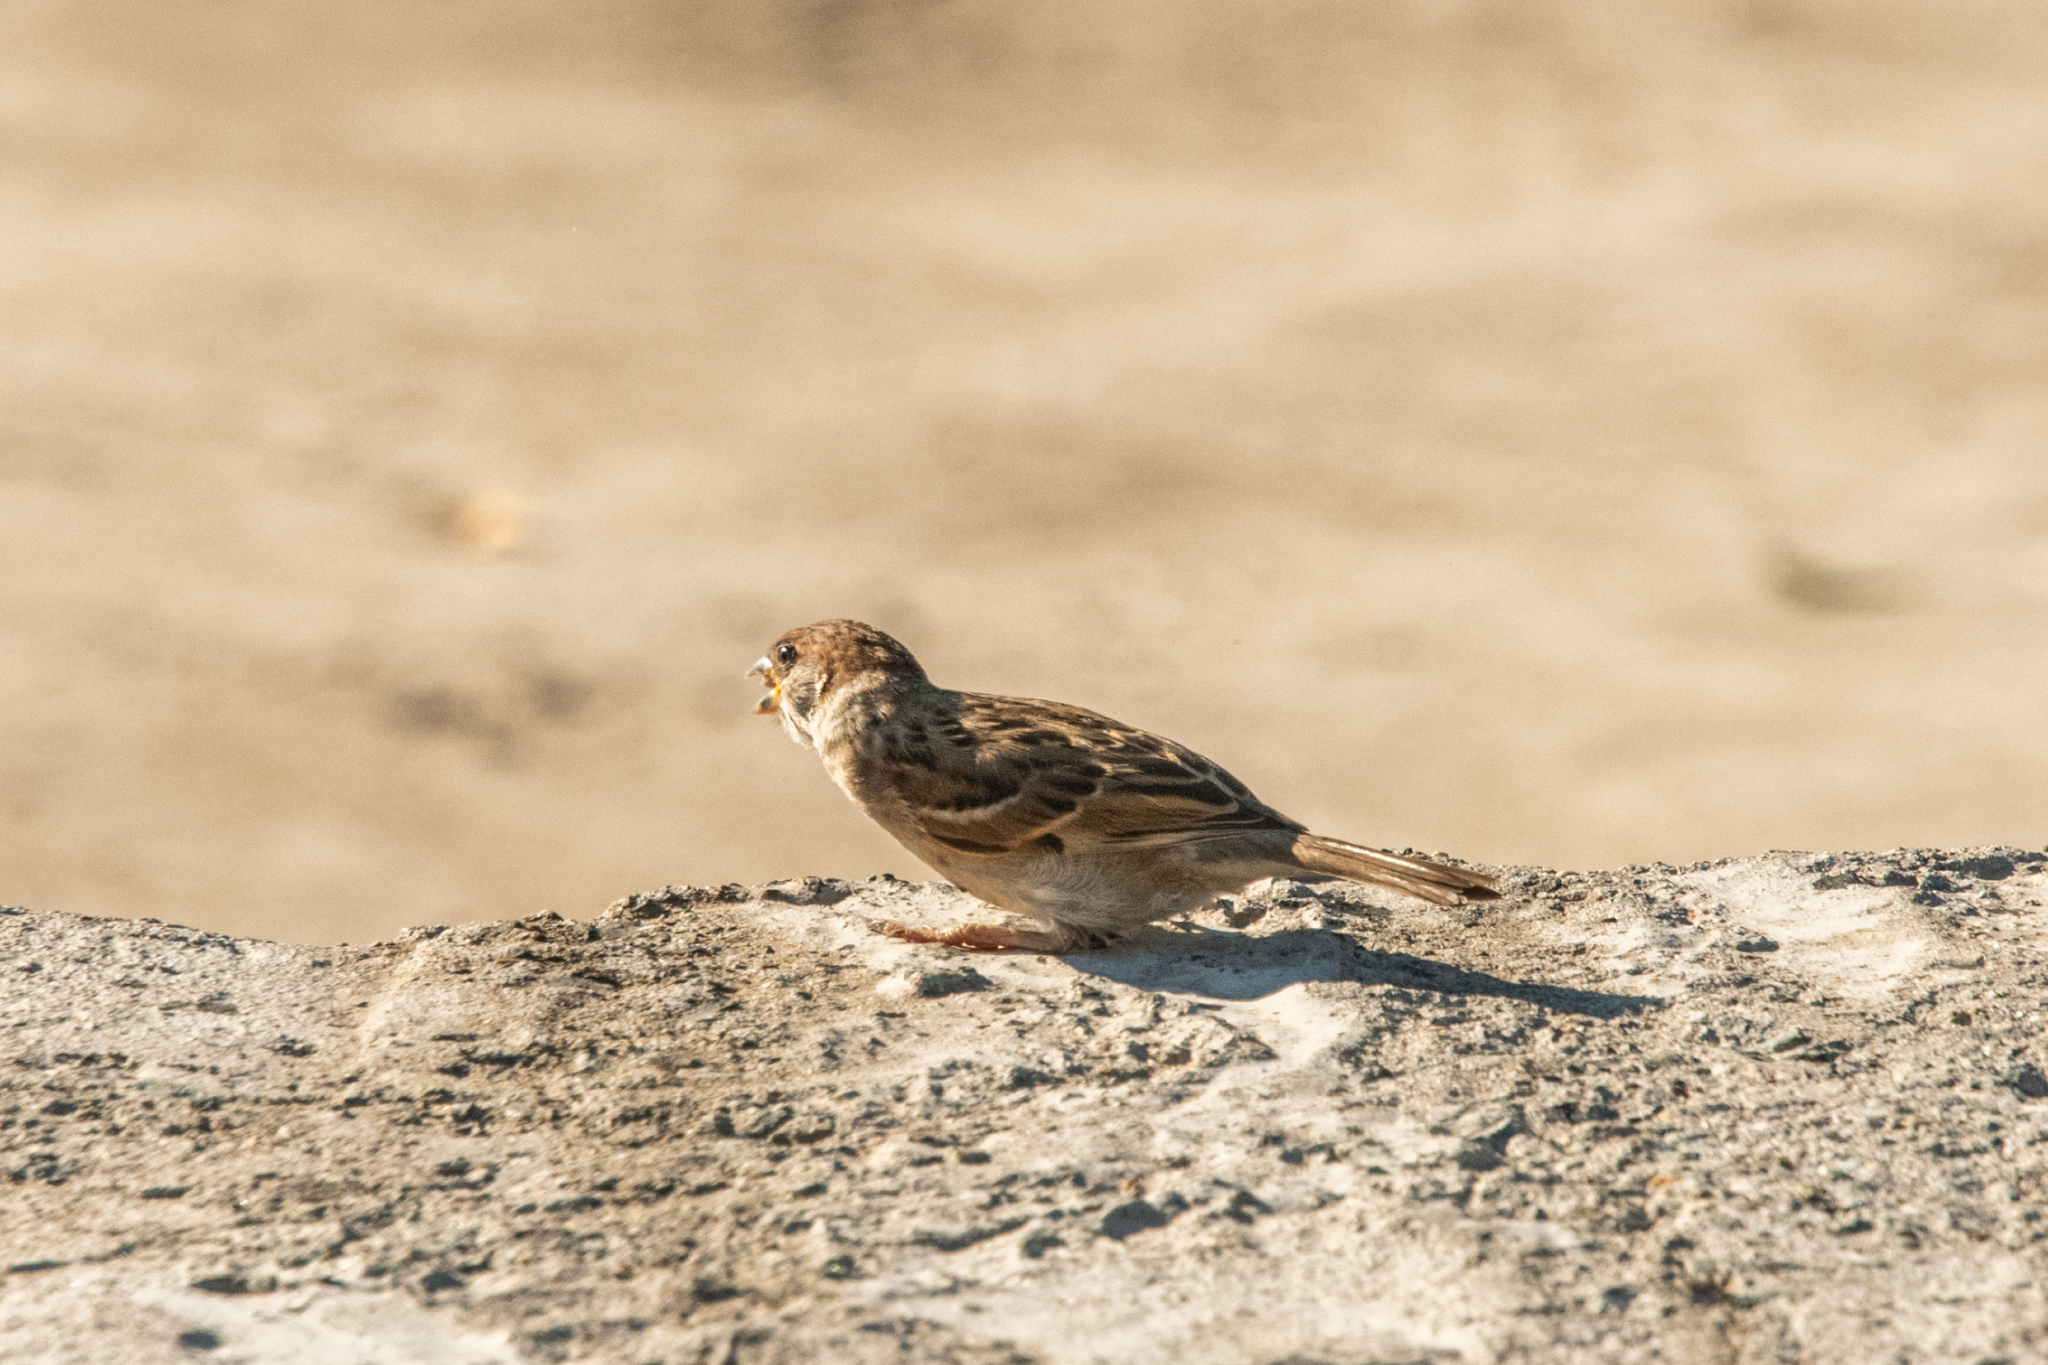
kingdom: Animalia
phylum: Chordata
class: Aves
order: Passeriformes
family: Passeridae
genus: Passer
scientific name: Passer montanus
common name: Eurasian tree sparrow
